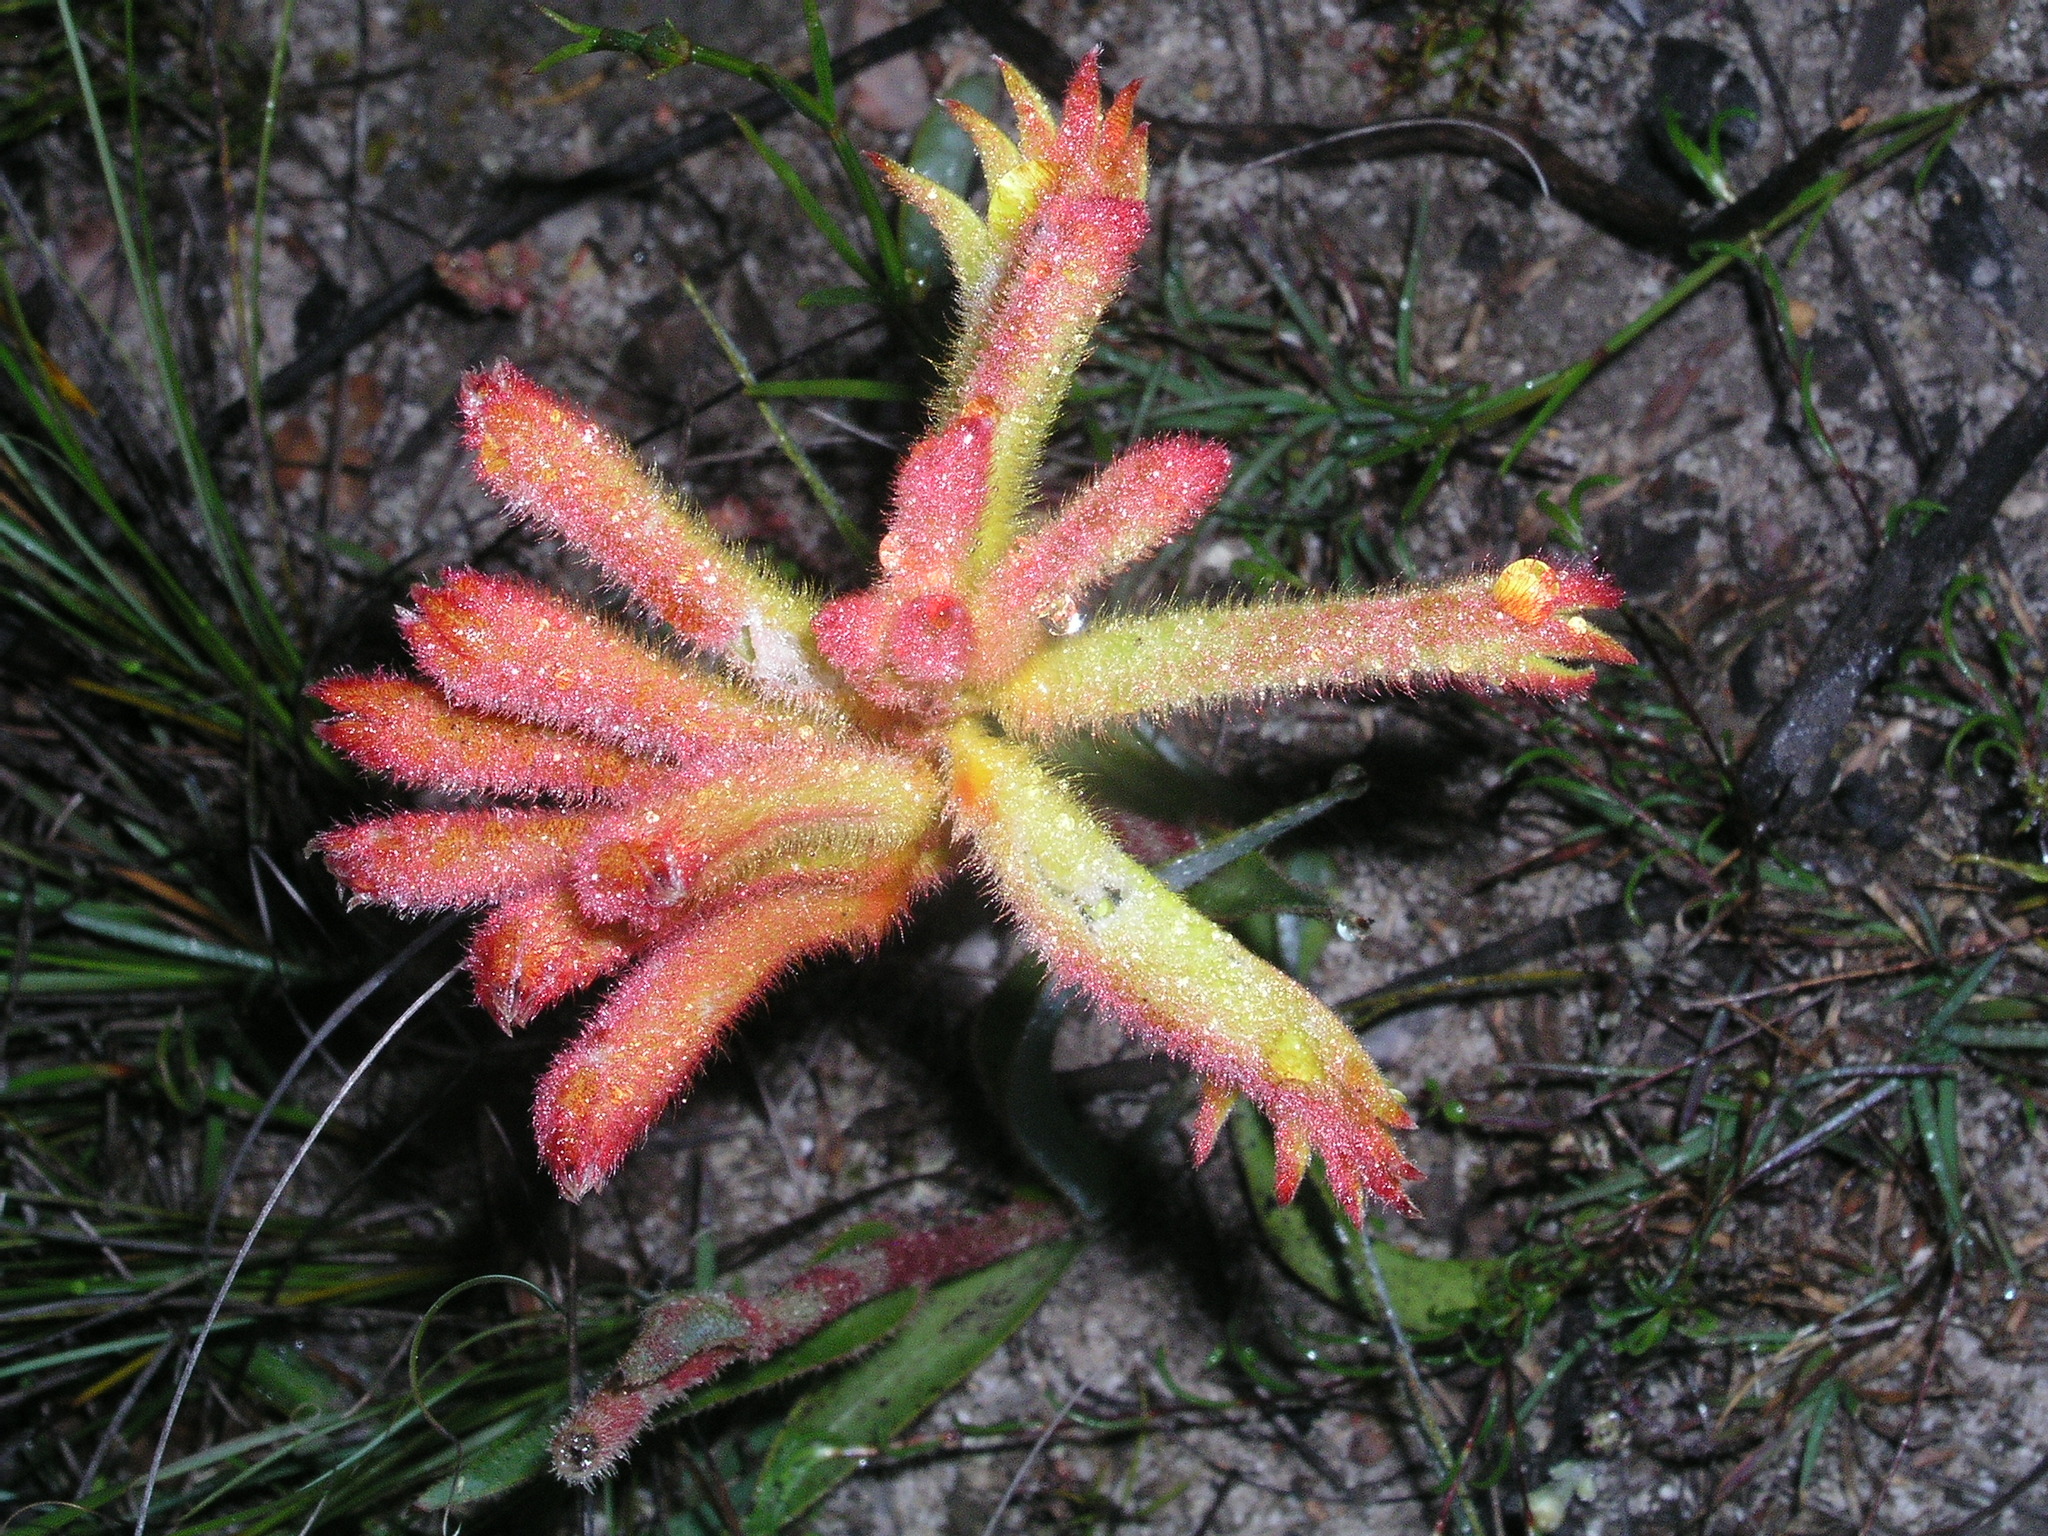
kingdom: Plantae
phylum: Tracheophyta
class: Liliopsida
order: Commelinales
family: Haemodoraceae
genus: Anigozanthos
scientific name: Anigozanthos humilis
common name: Cat's-paw
